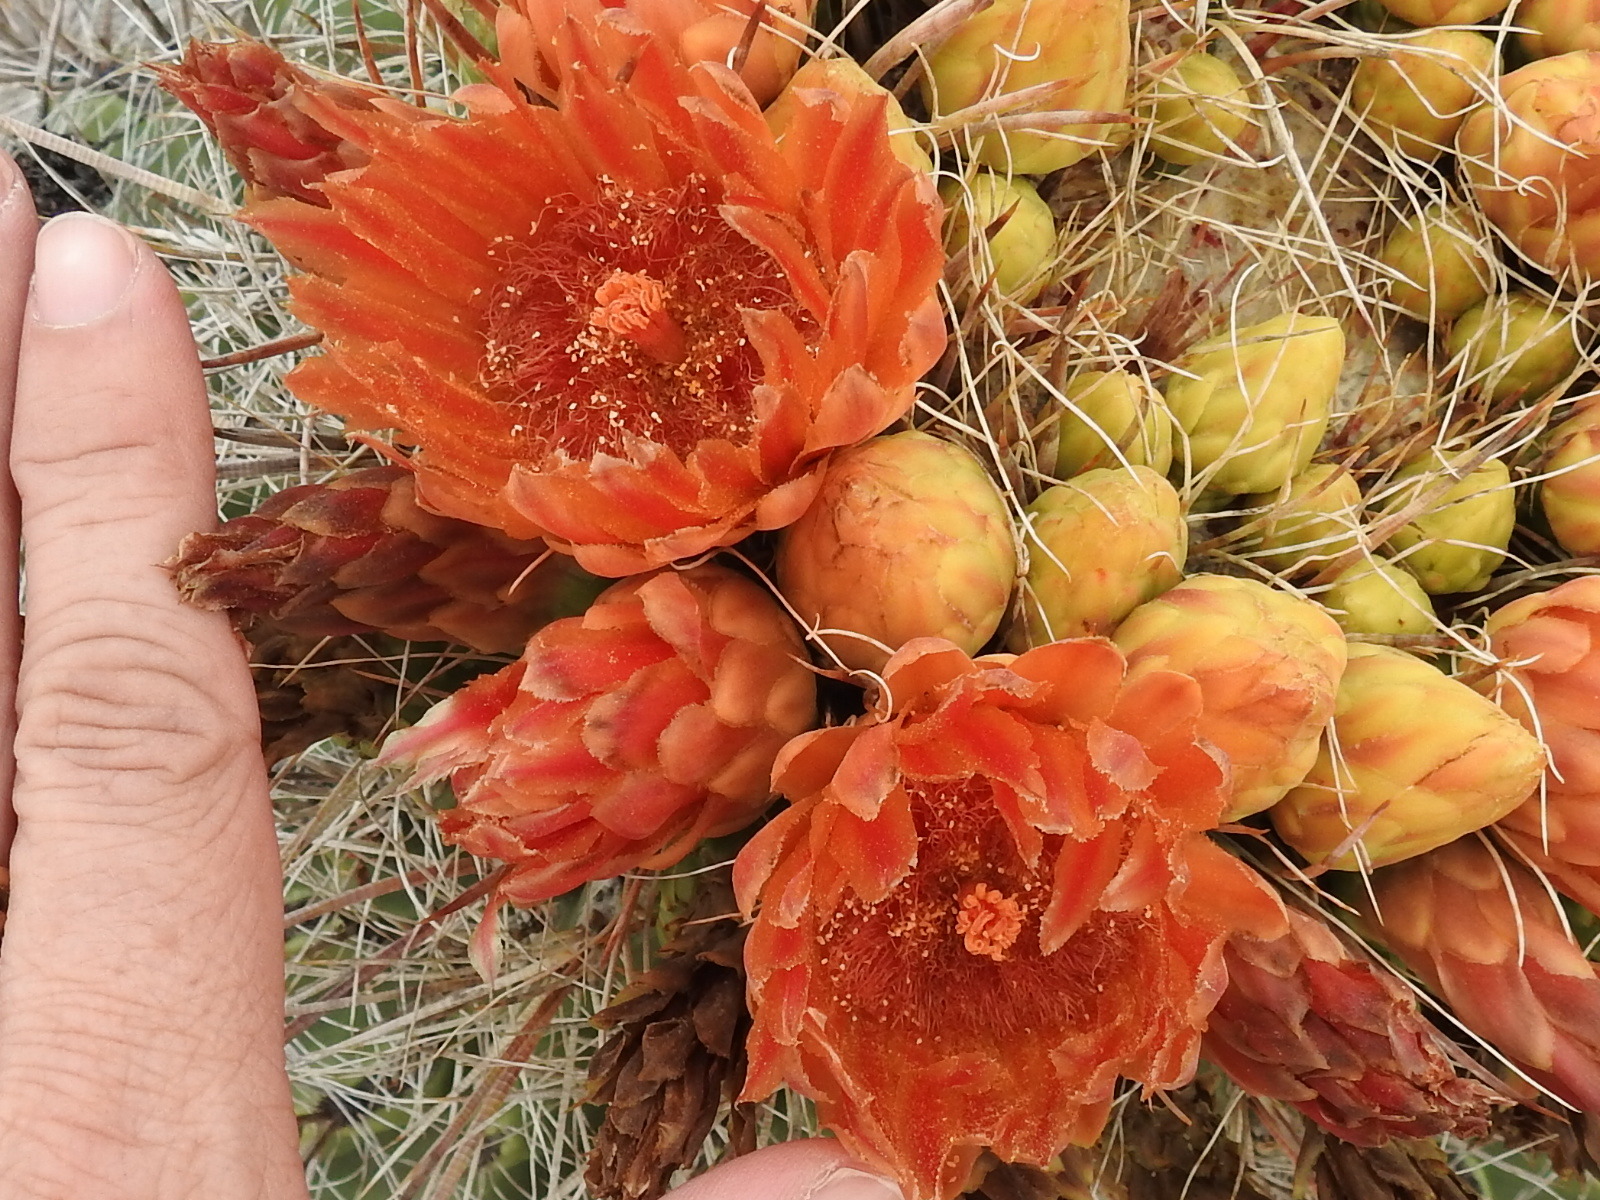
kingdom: Plantae
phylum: Tracheophyta
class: Magnoliopsida
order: Caryophyllales
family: Cactaceae
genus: Ferocactus
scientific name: Ferocactus wislizeni
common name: Candy barrel cactus
